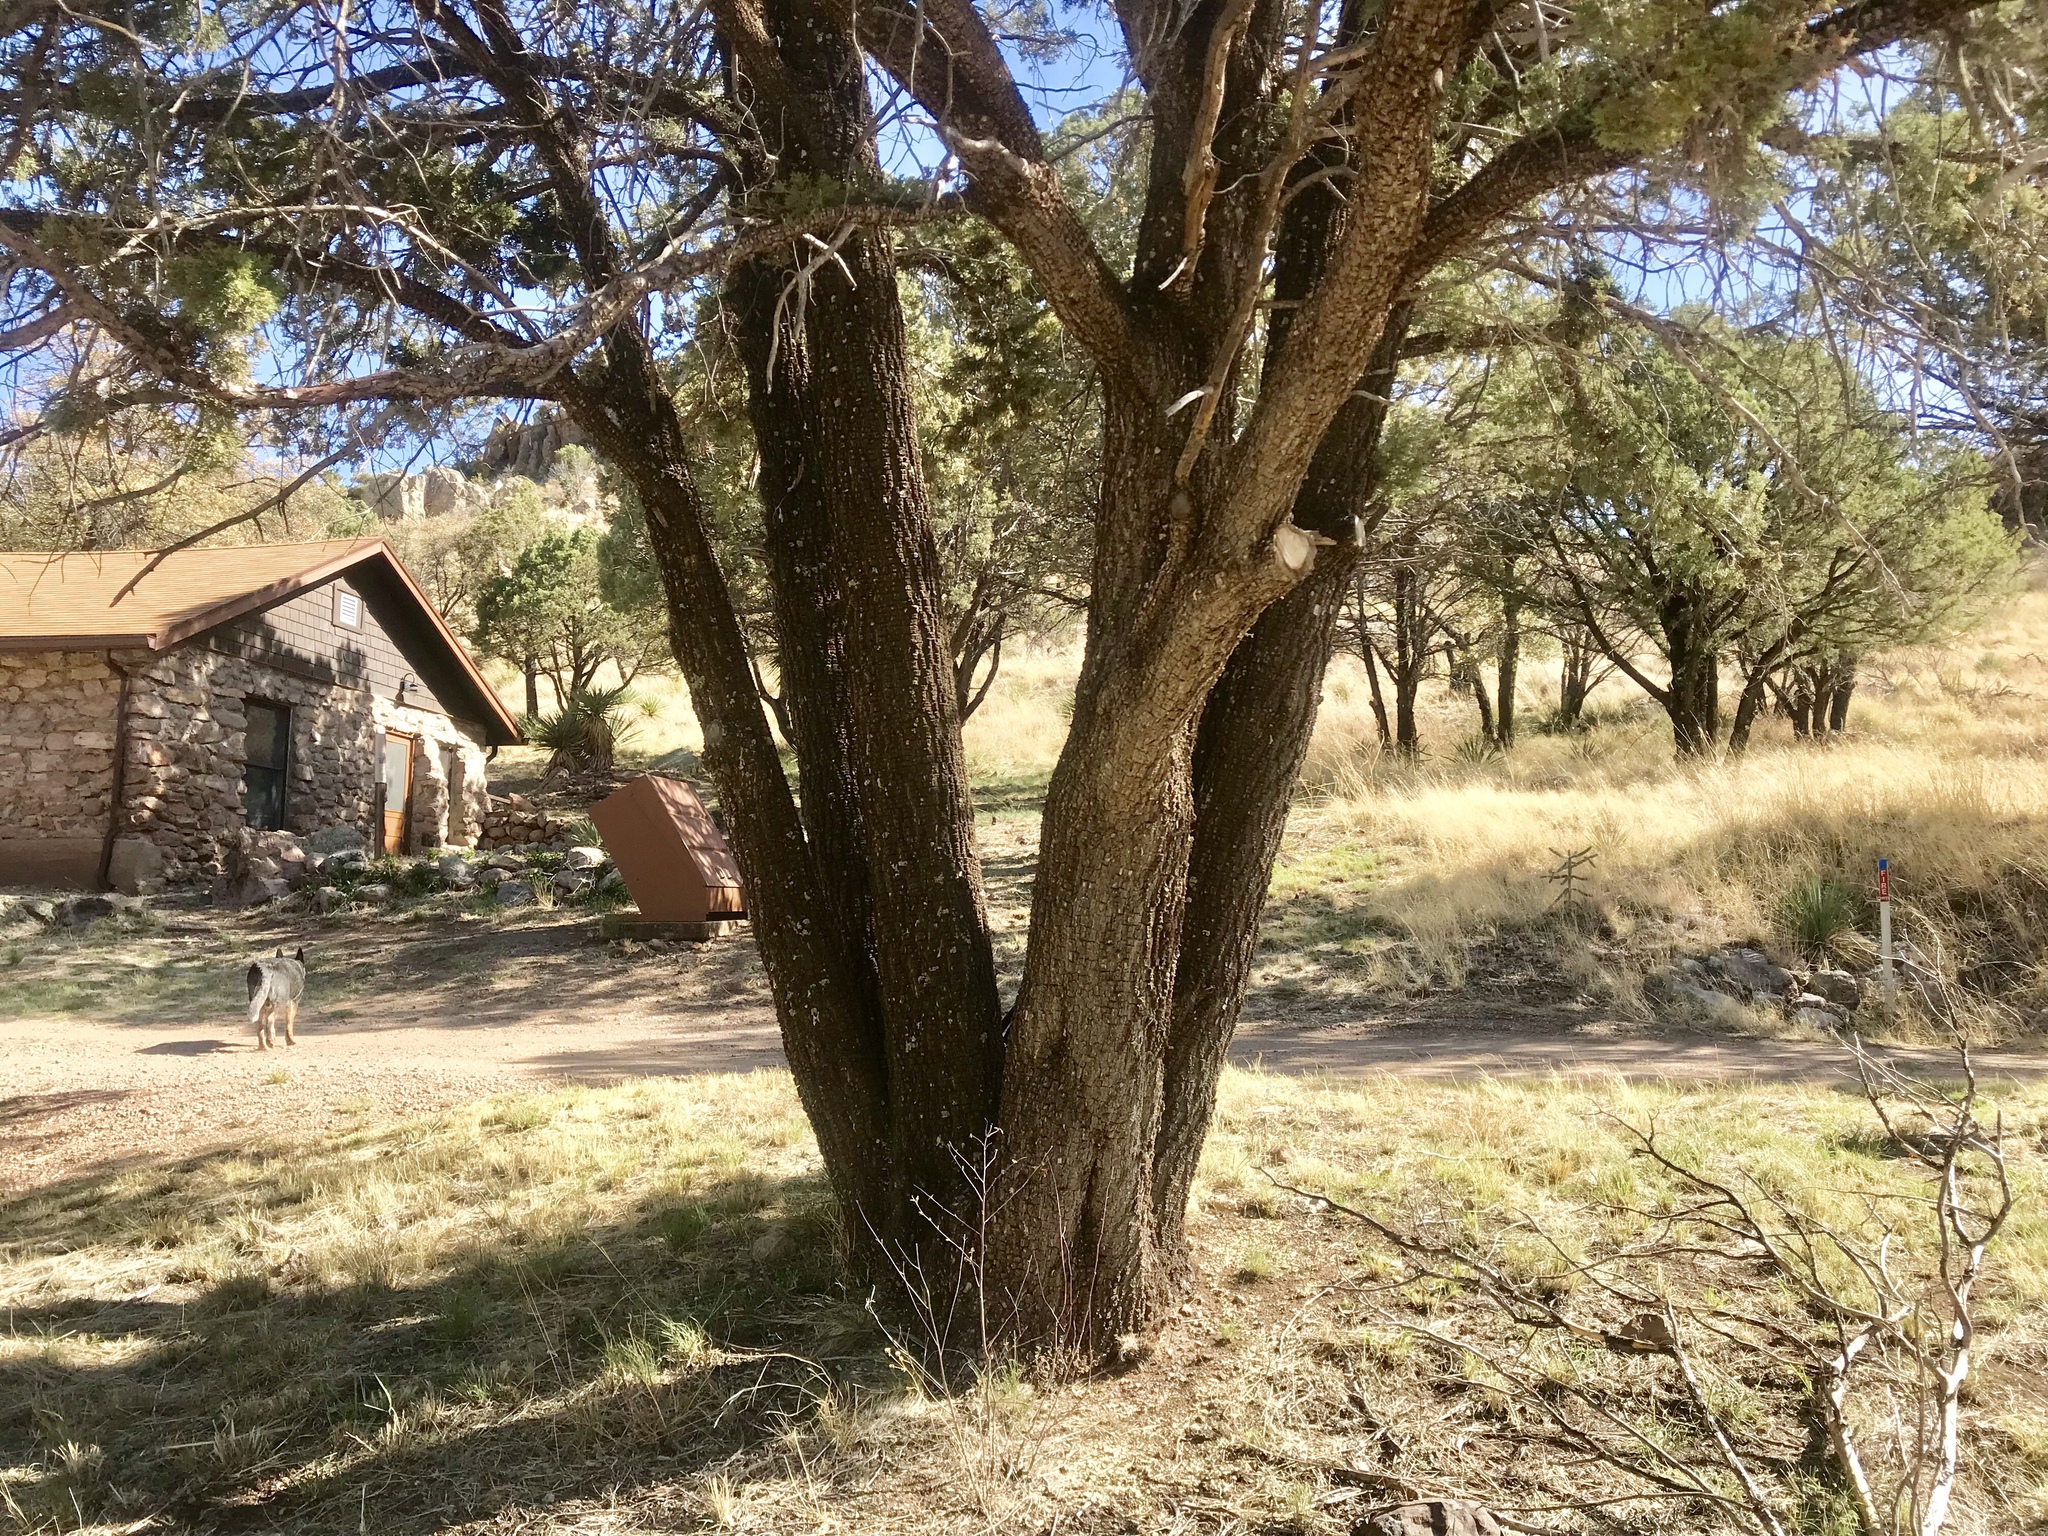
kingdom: Plantae
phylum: Tracheophyta
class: Pinopsida
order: Pinales
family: Cupressaceae
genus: Juniperus
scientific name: Juniperus deppeana
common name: Alligator juniper
